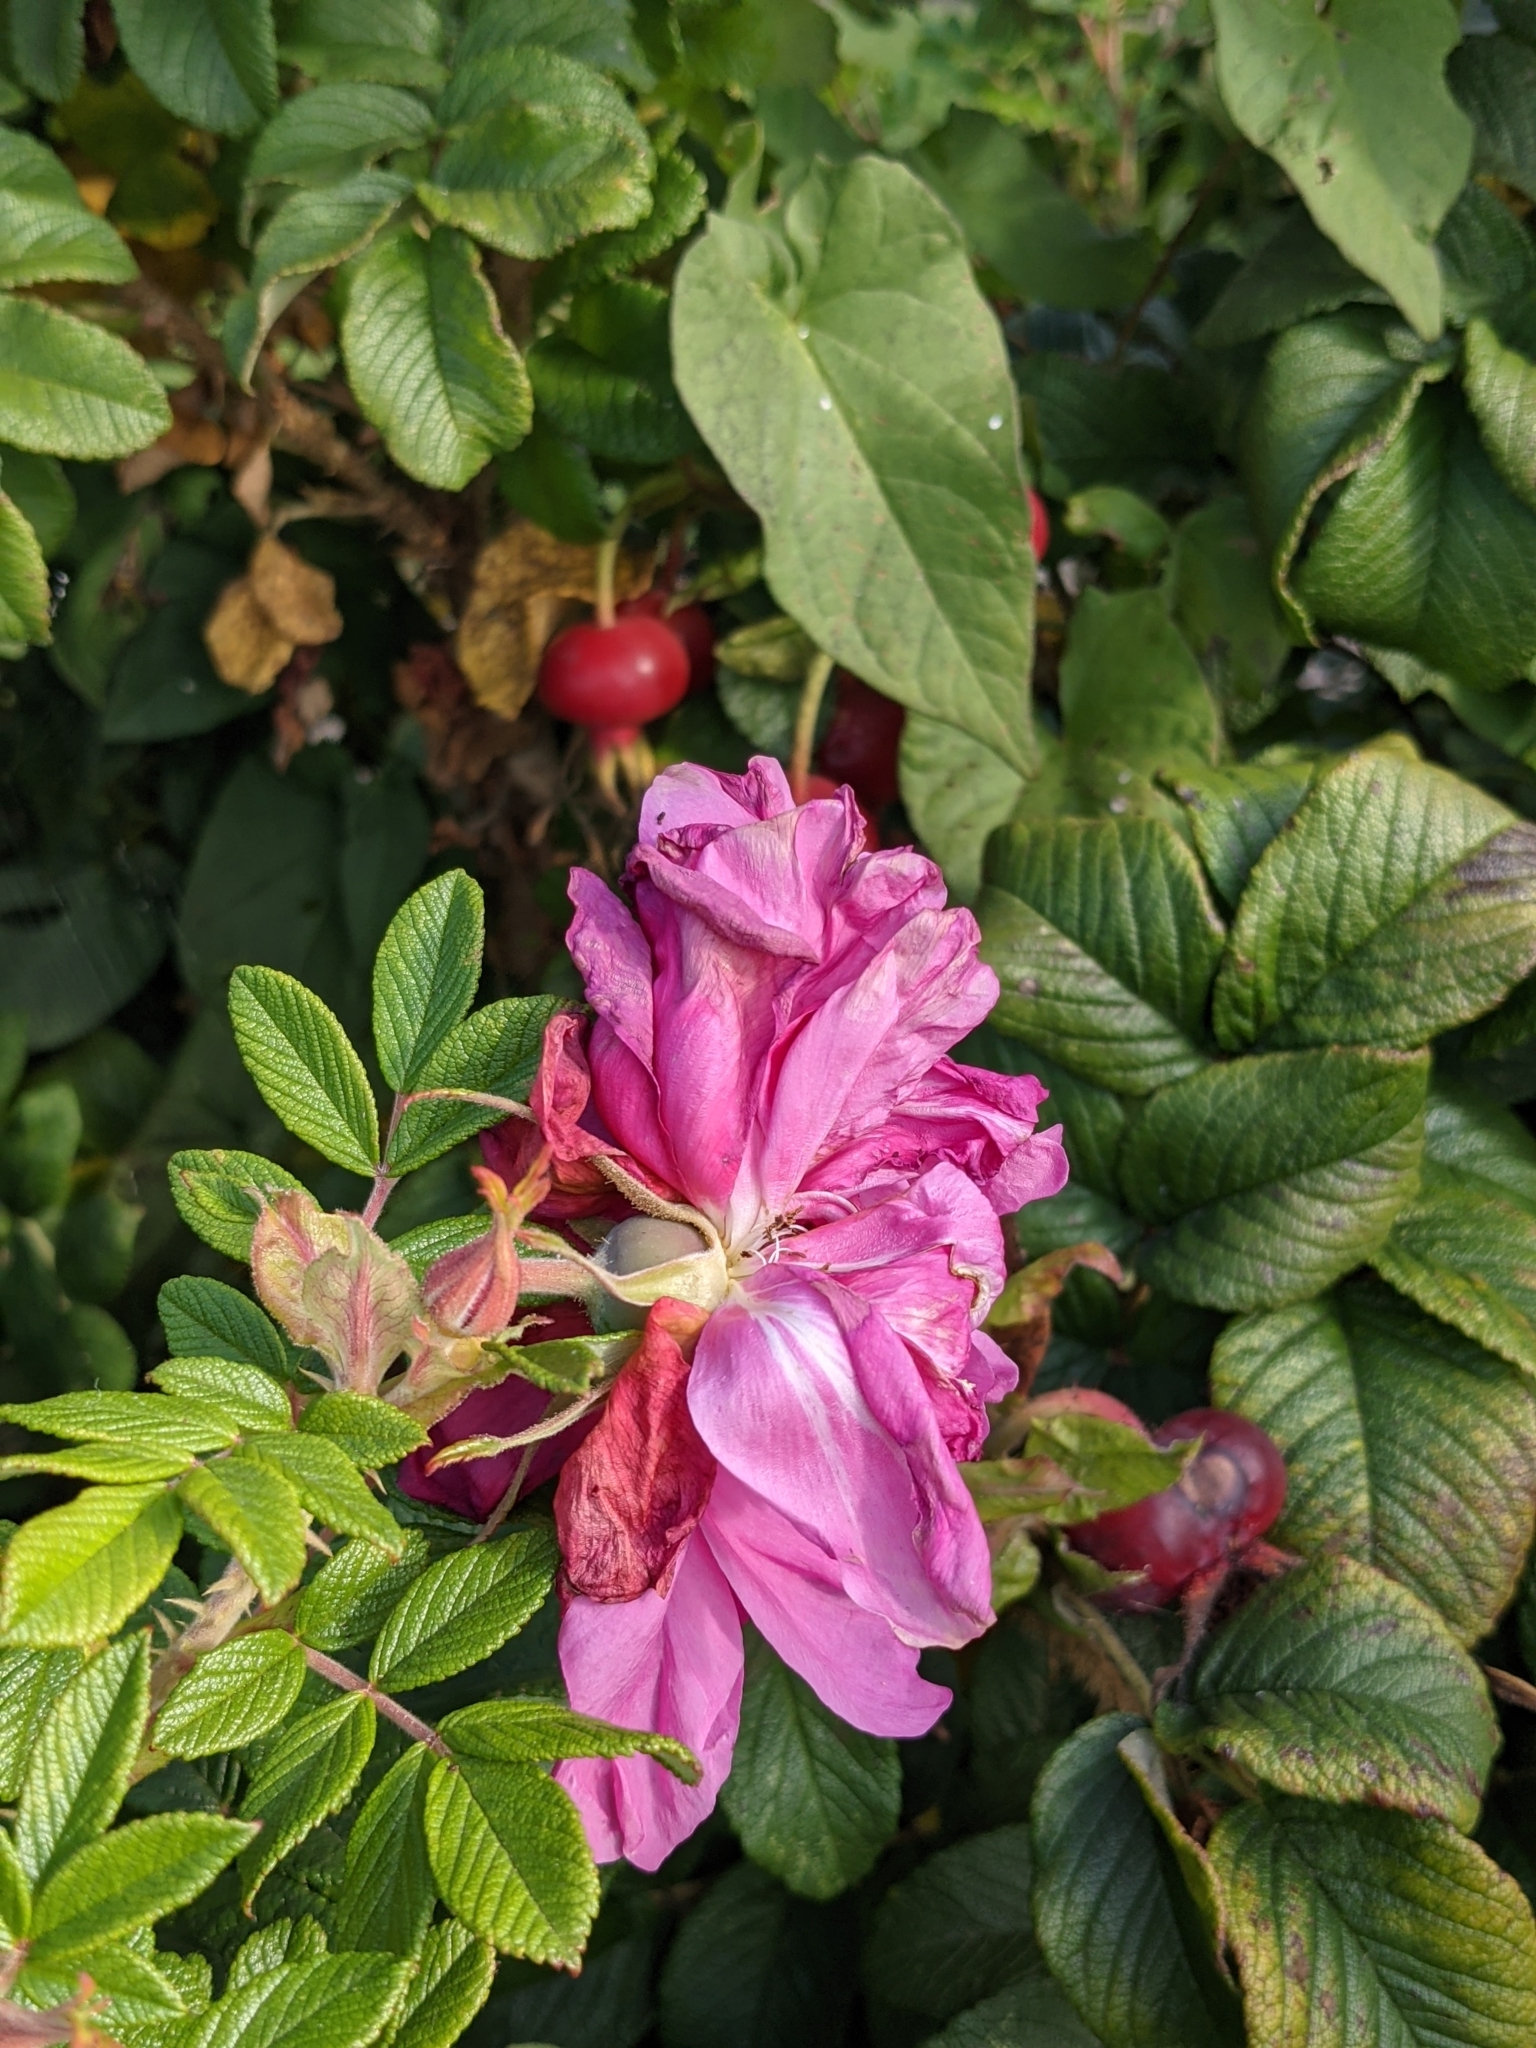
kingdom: Plantae
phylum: Tracheophyta
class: Magnoliopsida
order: Rosales
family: Rosaceae
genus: Rosa
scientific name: Rosa rugosa
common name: Japanese rose
